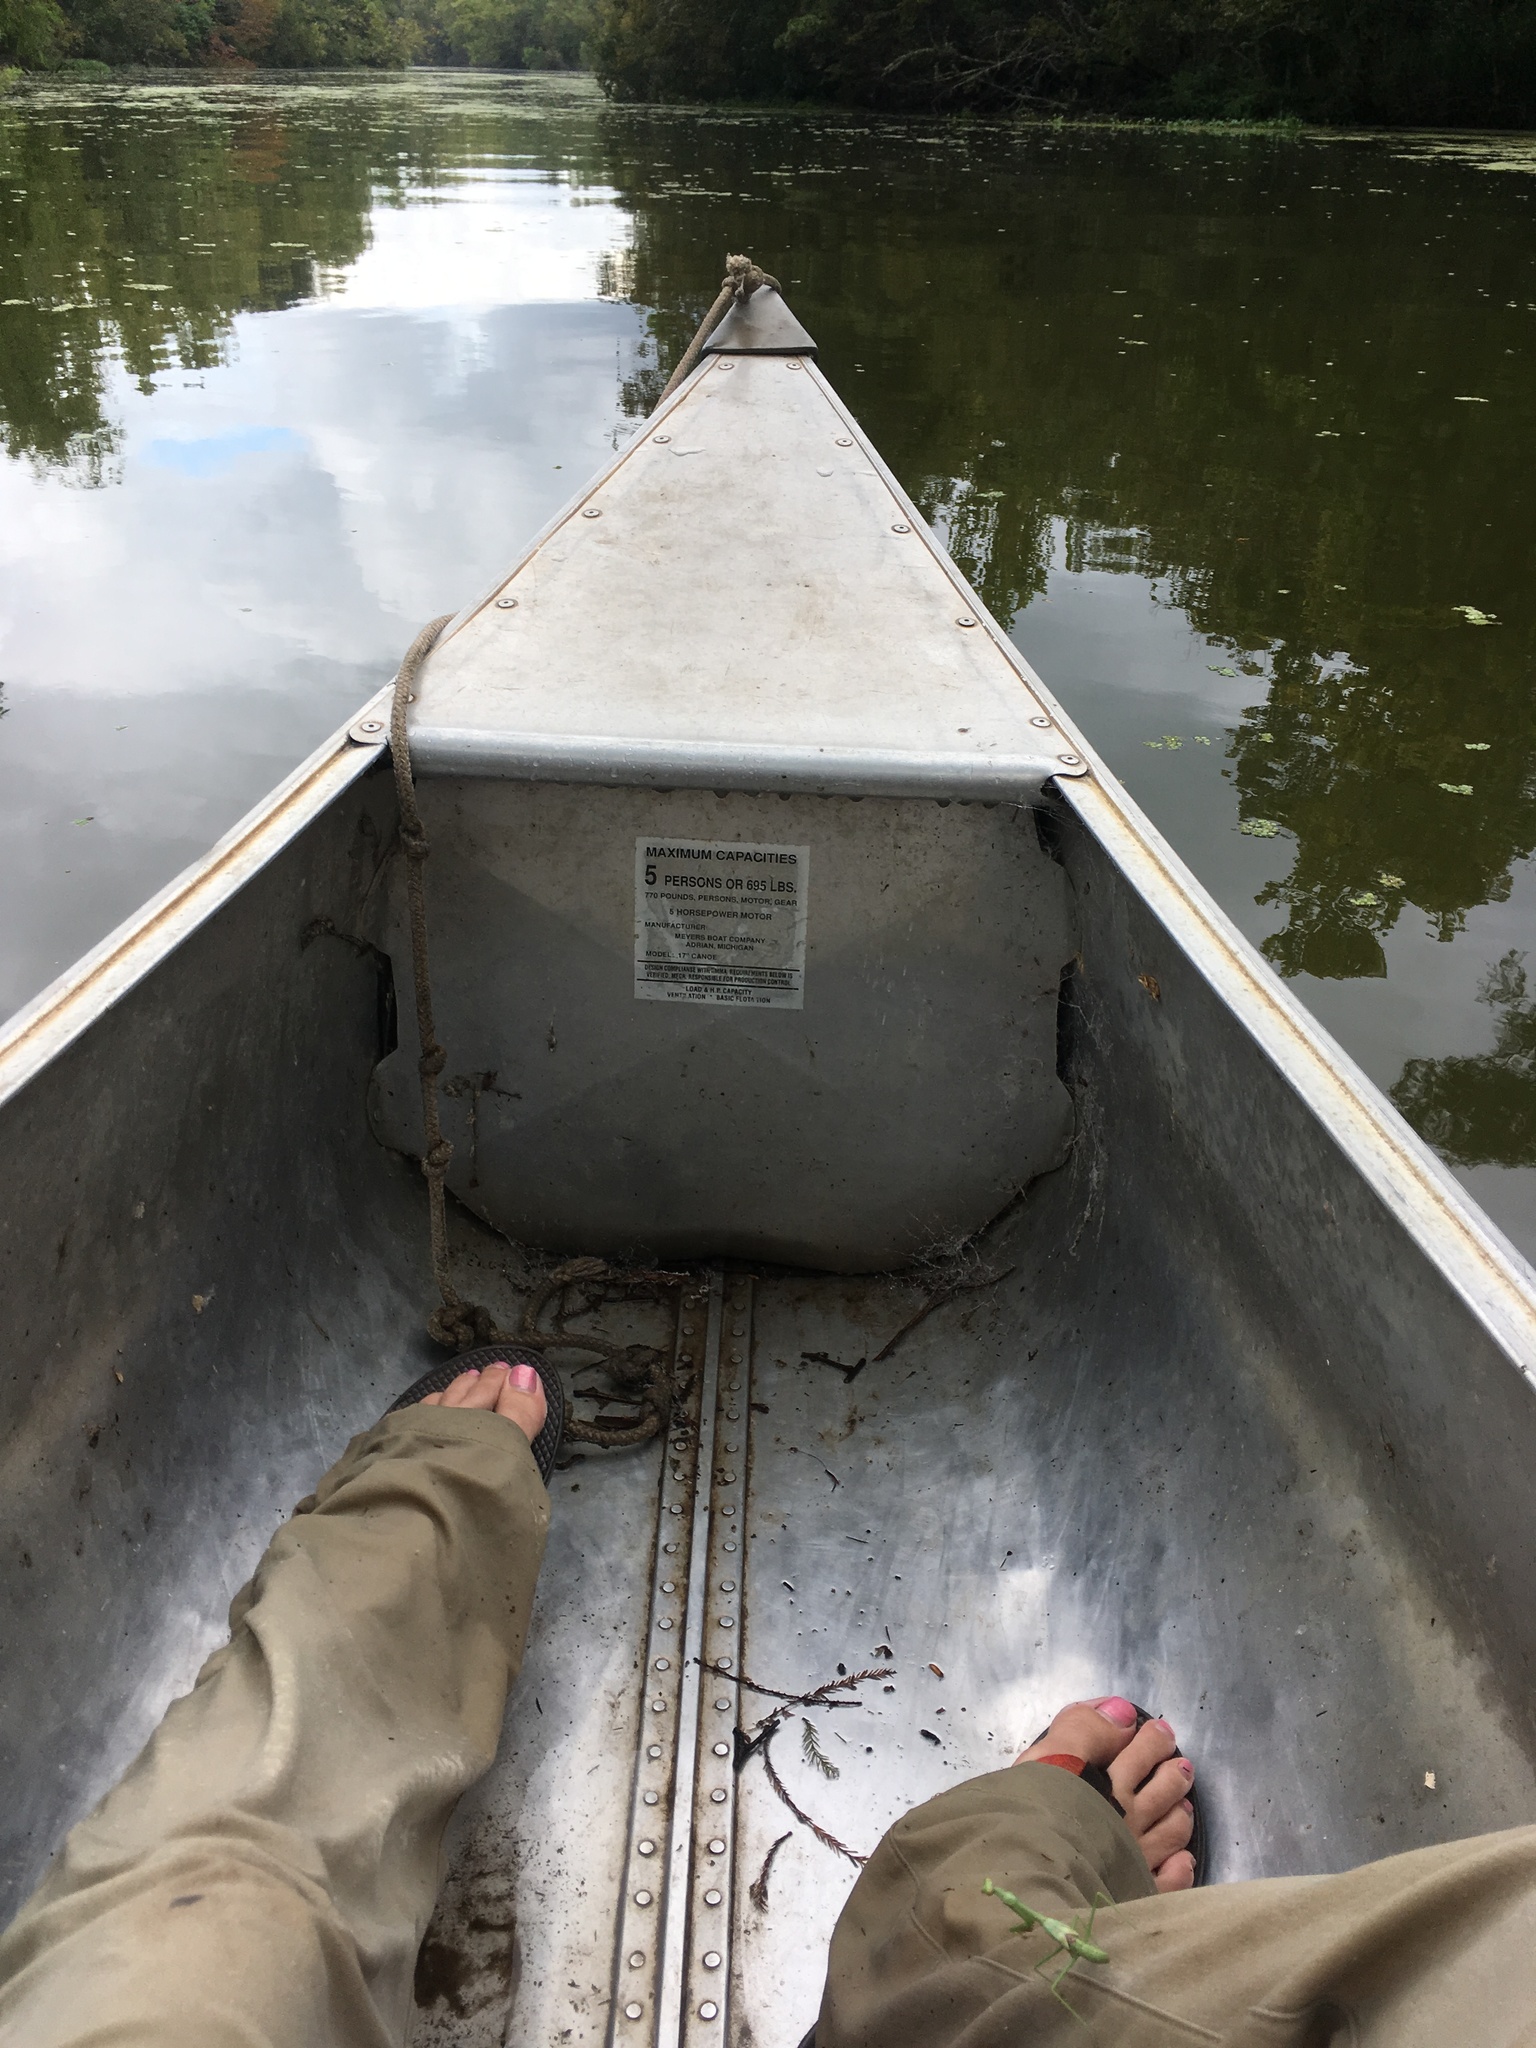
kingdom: Animalia
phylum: Arthropoda
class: Insecta
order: Mantodea
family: Mantidae
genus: Stagmomantis
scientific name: Stagmomantis carolina
